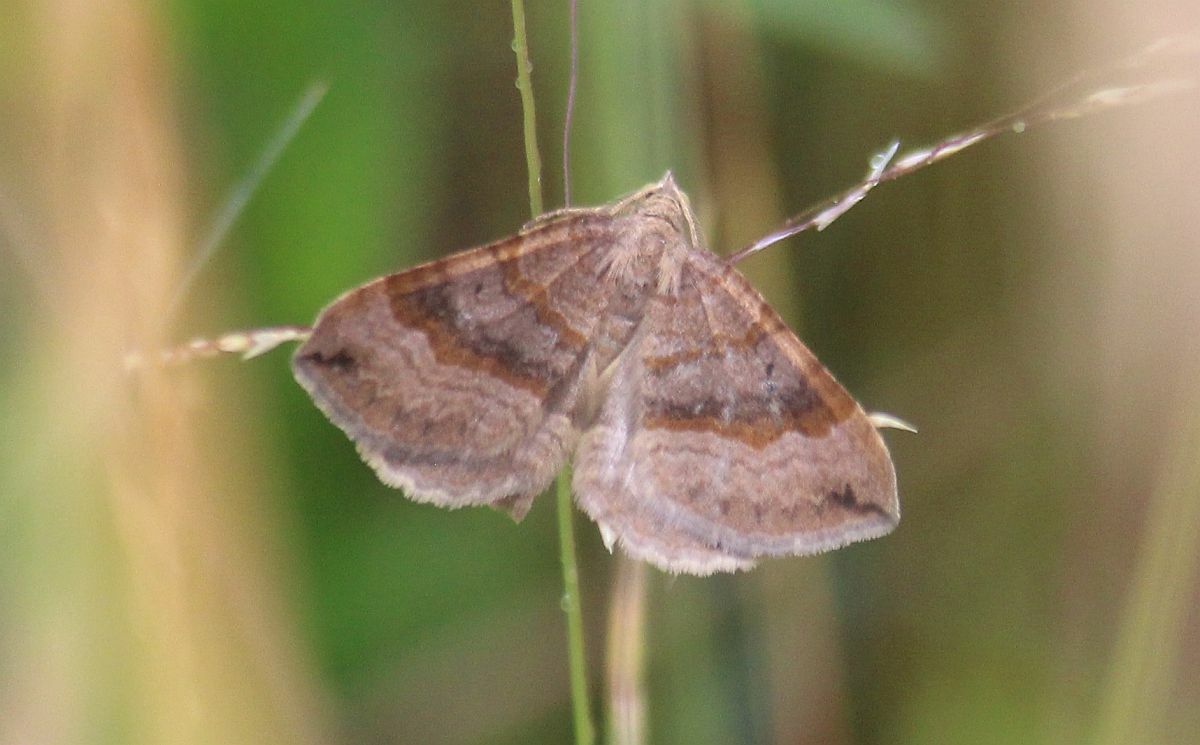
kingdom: Animalia
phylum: Arthropoda
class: Insecta
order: Lepidoptera
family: Geometridae
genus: Scotopteryx
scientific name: Scotopteryx chenopodiata
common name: Shaded broad-bar
